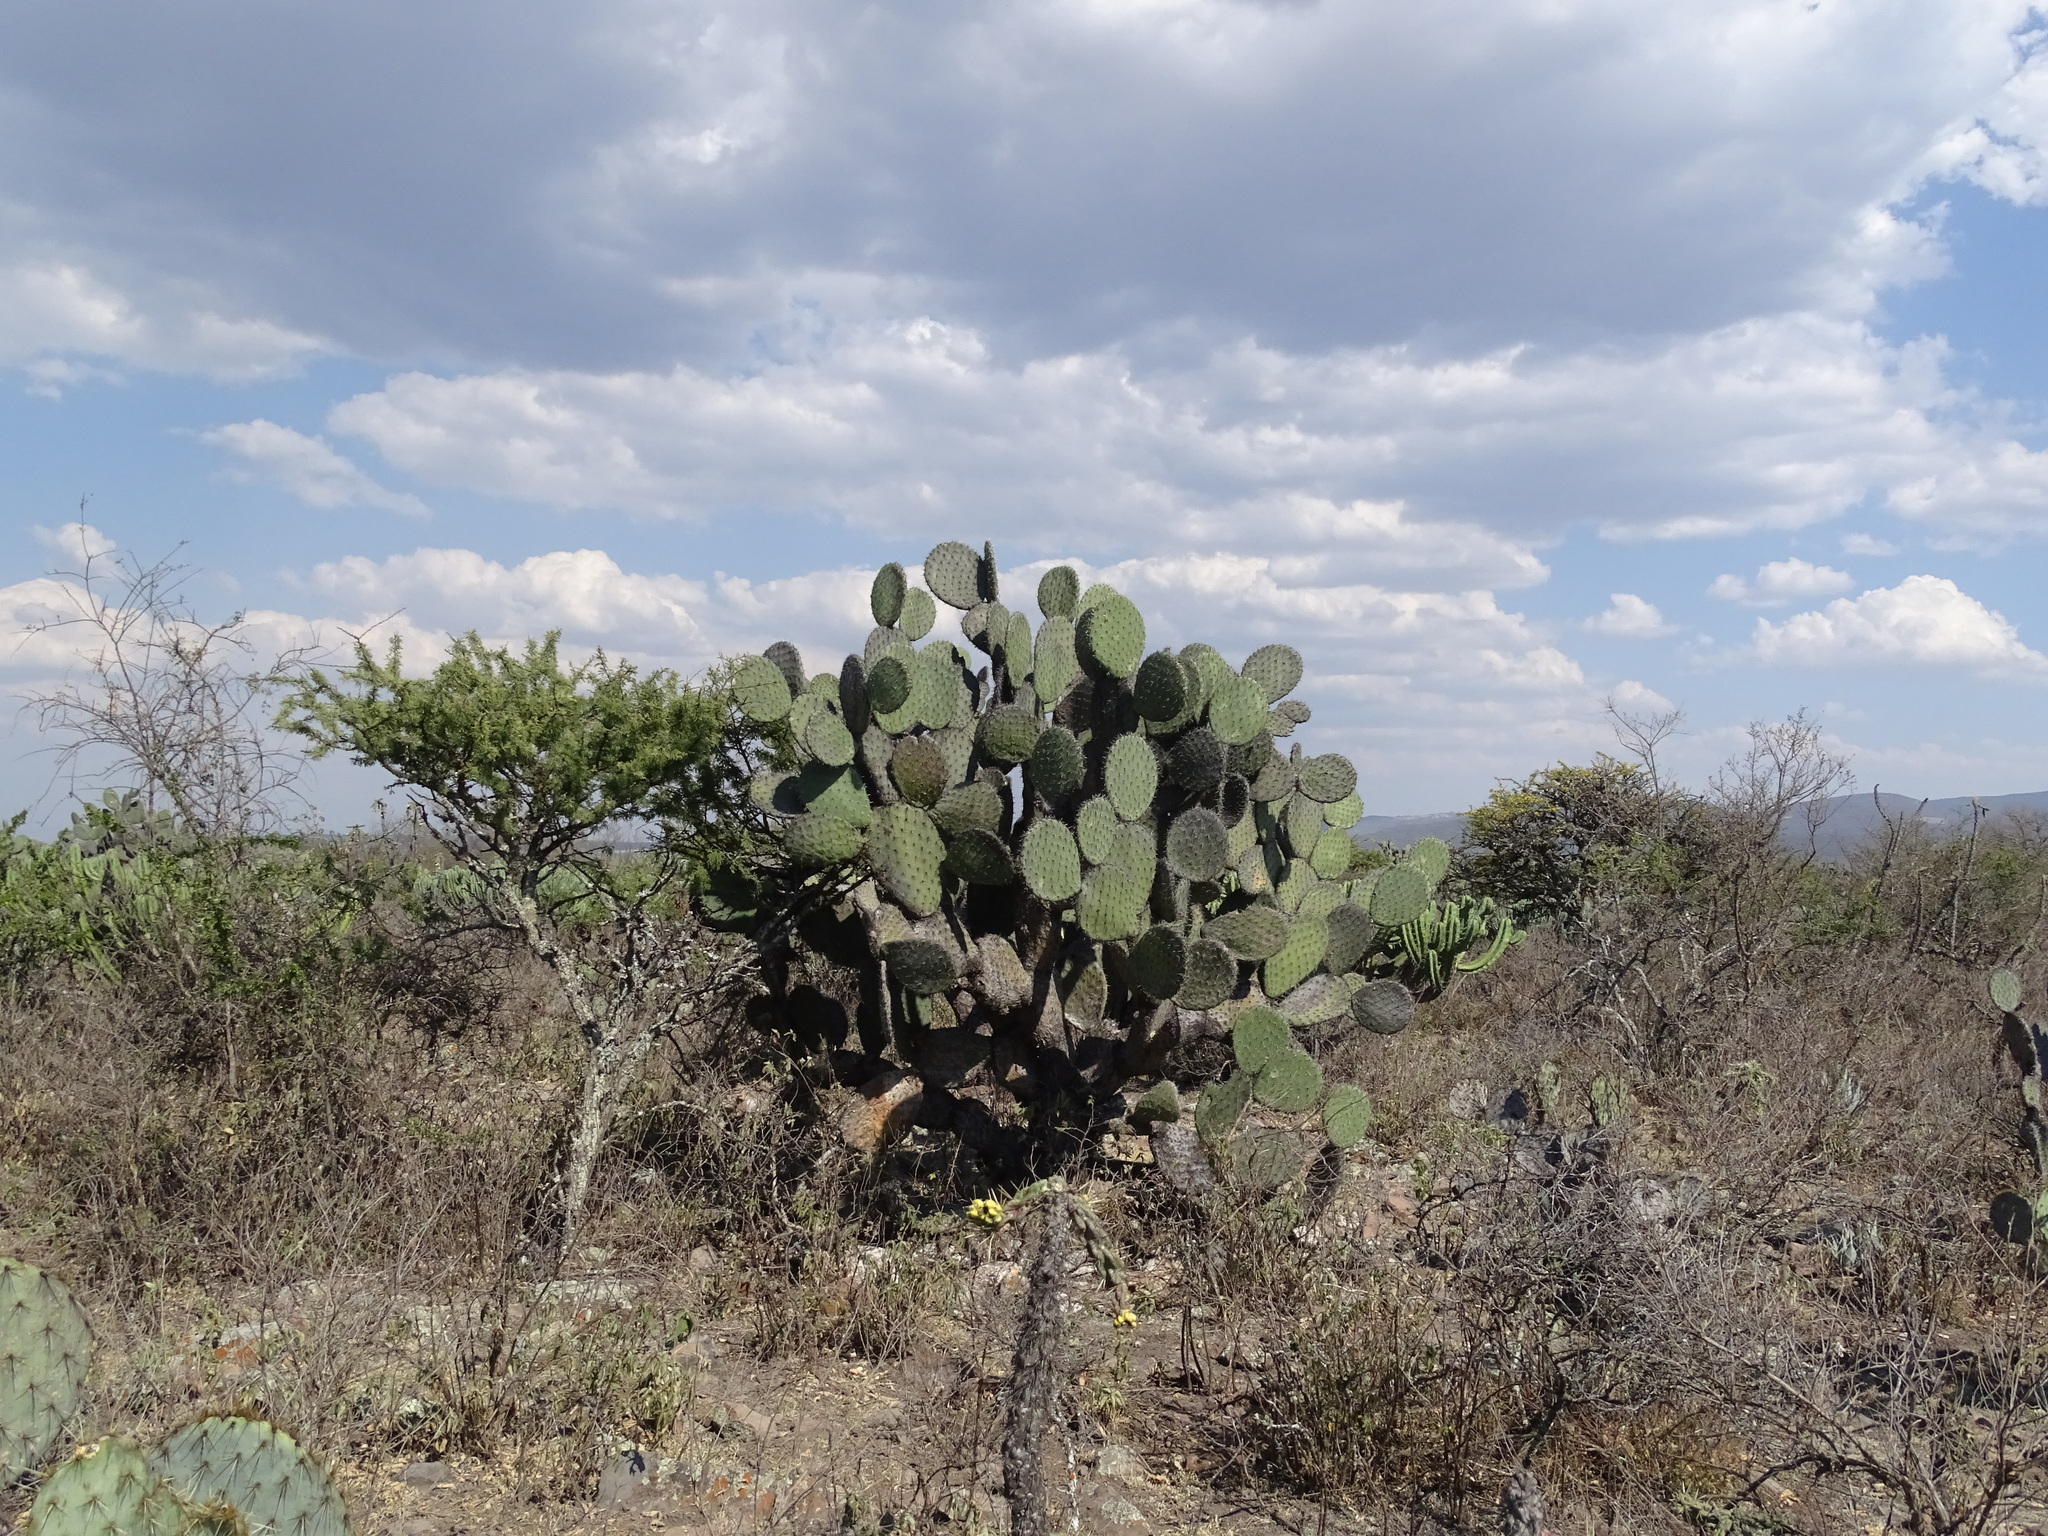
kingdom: Plantae
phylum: Tracheophyta
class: Magnoliopsida
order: Caryophyllales
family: Cactaceae
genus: Opuntia
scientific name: Opuntia hyptiacantha
